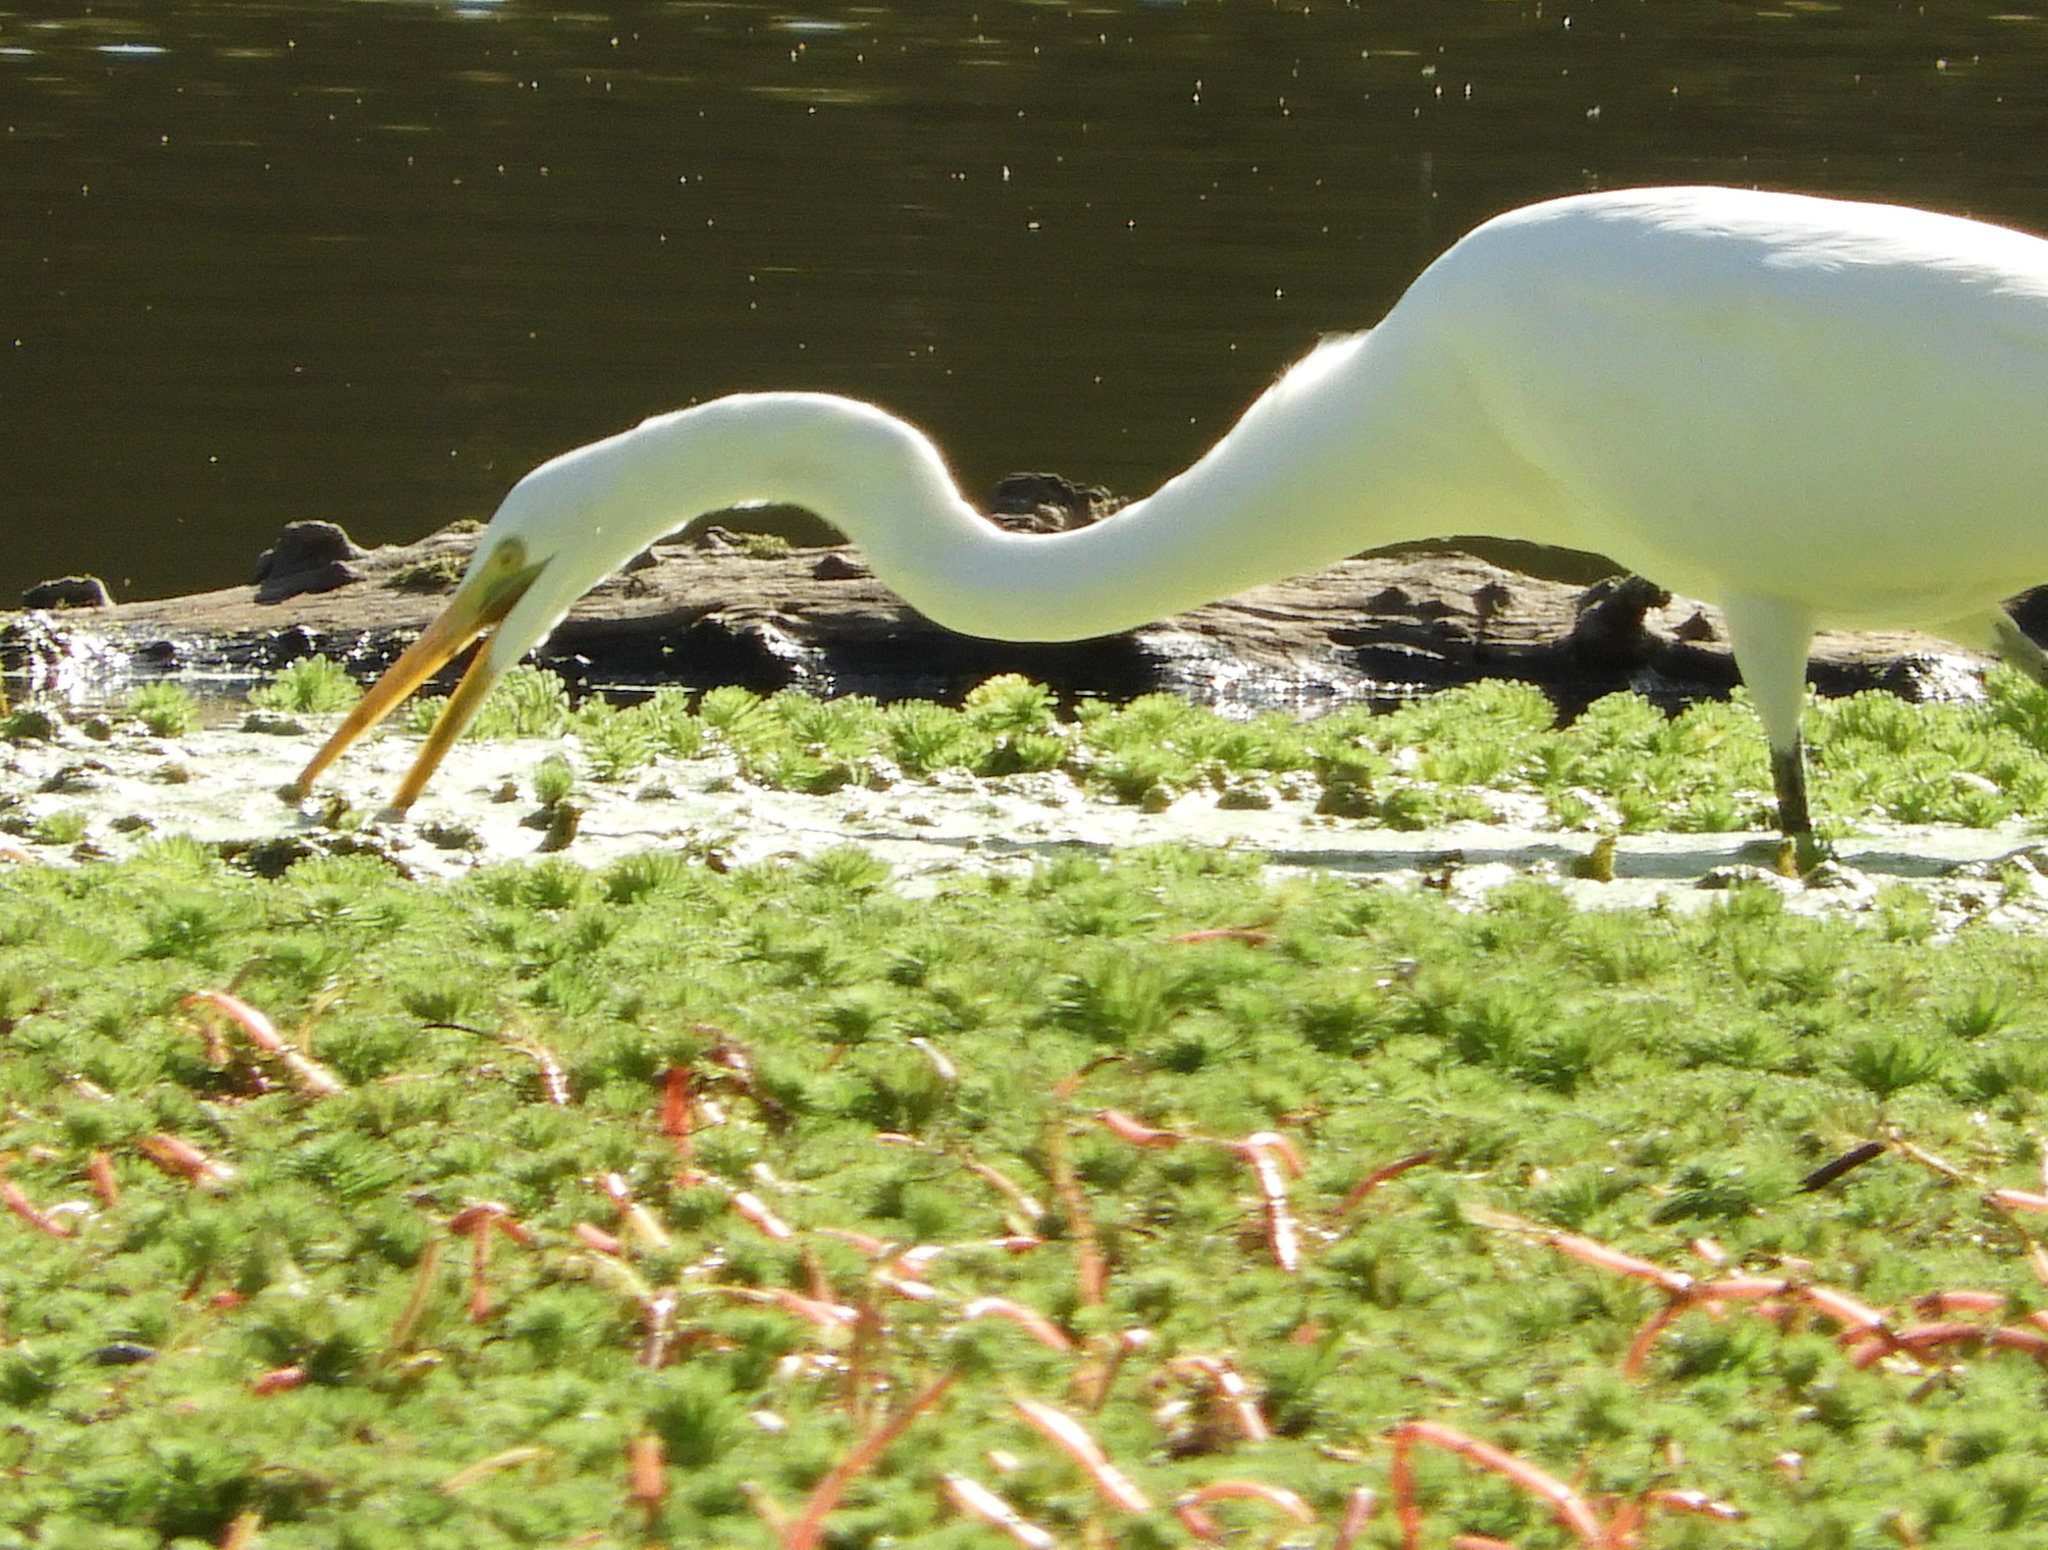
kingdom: Animalia
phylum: Chordata
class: Aves
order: Pelecaniformes
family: Ardeidae
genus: Ardea
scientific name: Ardea alba
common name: Great egret
